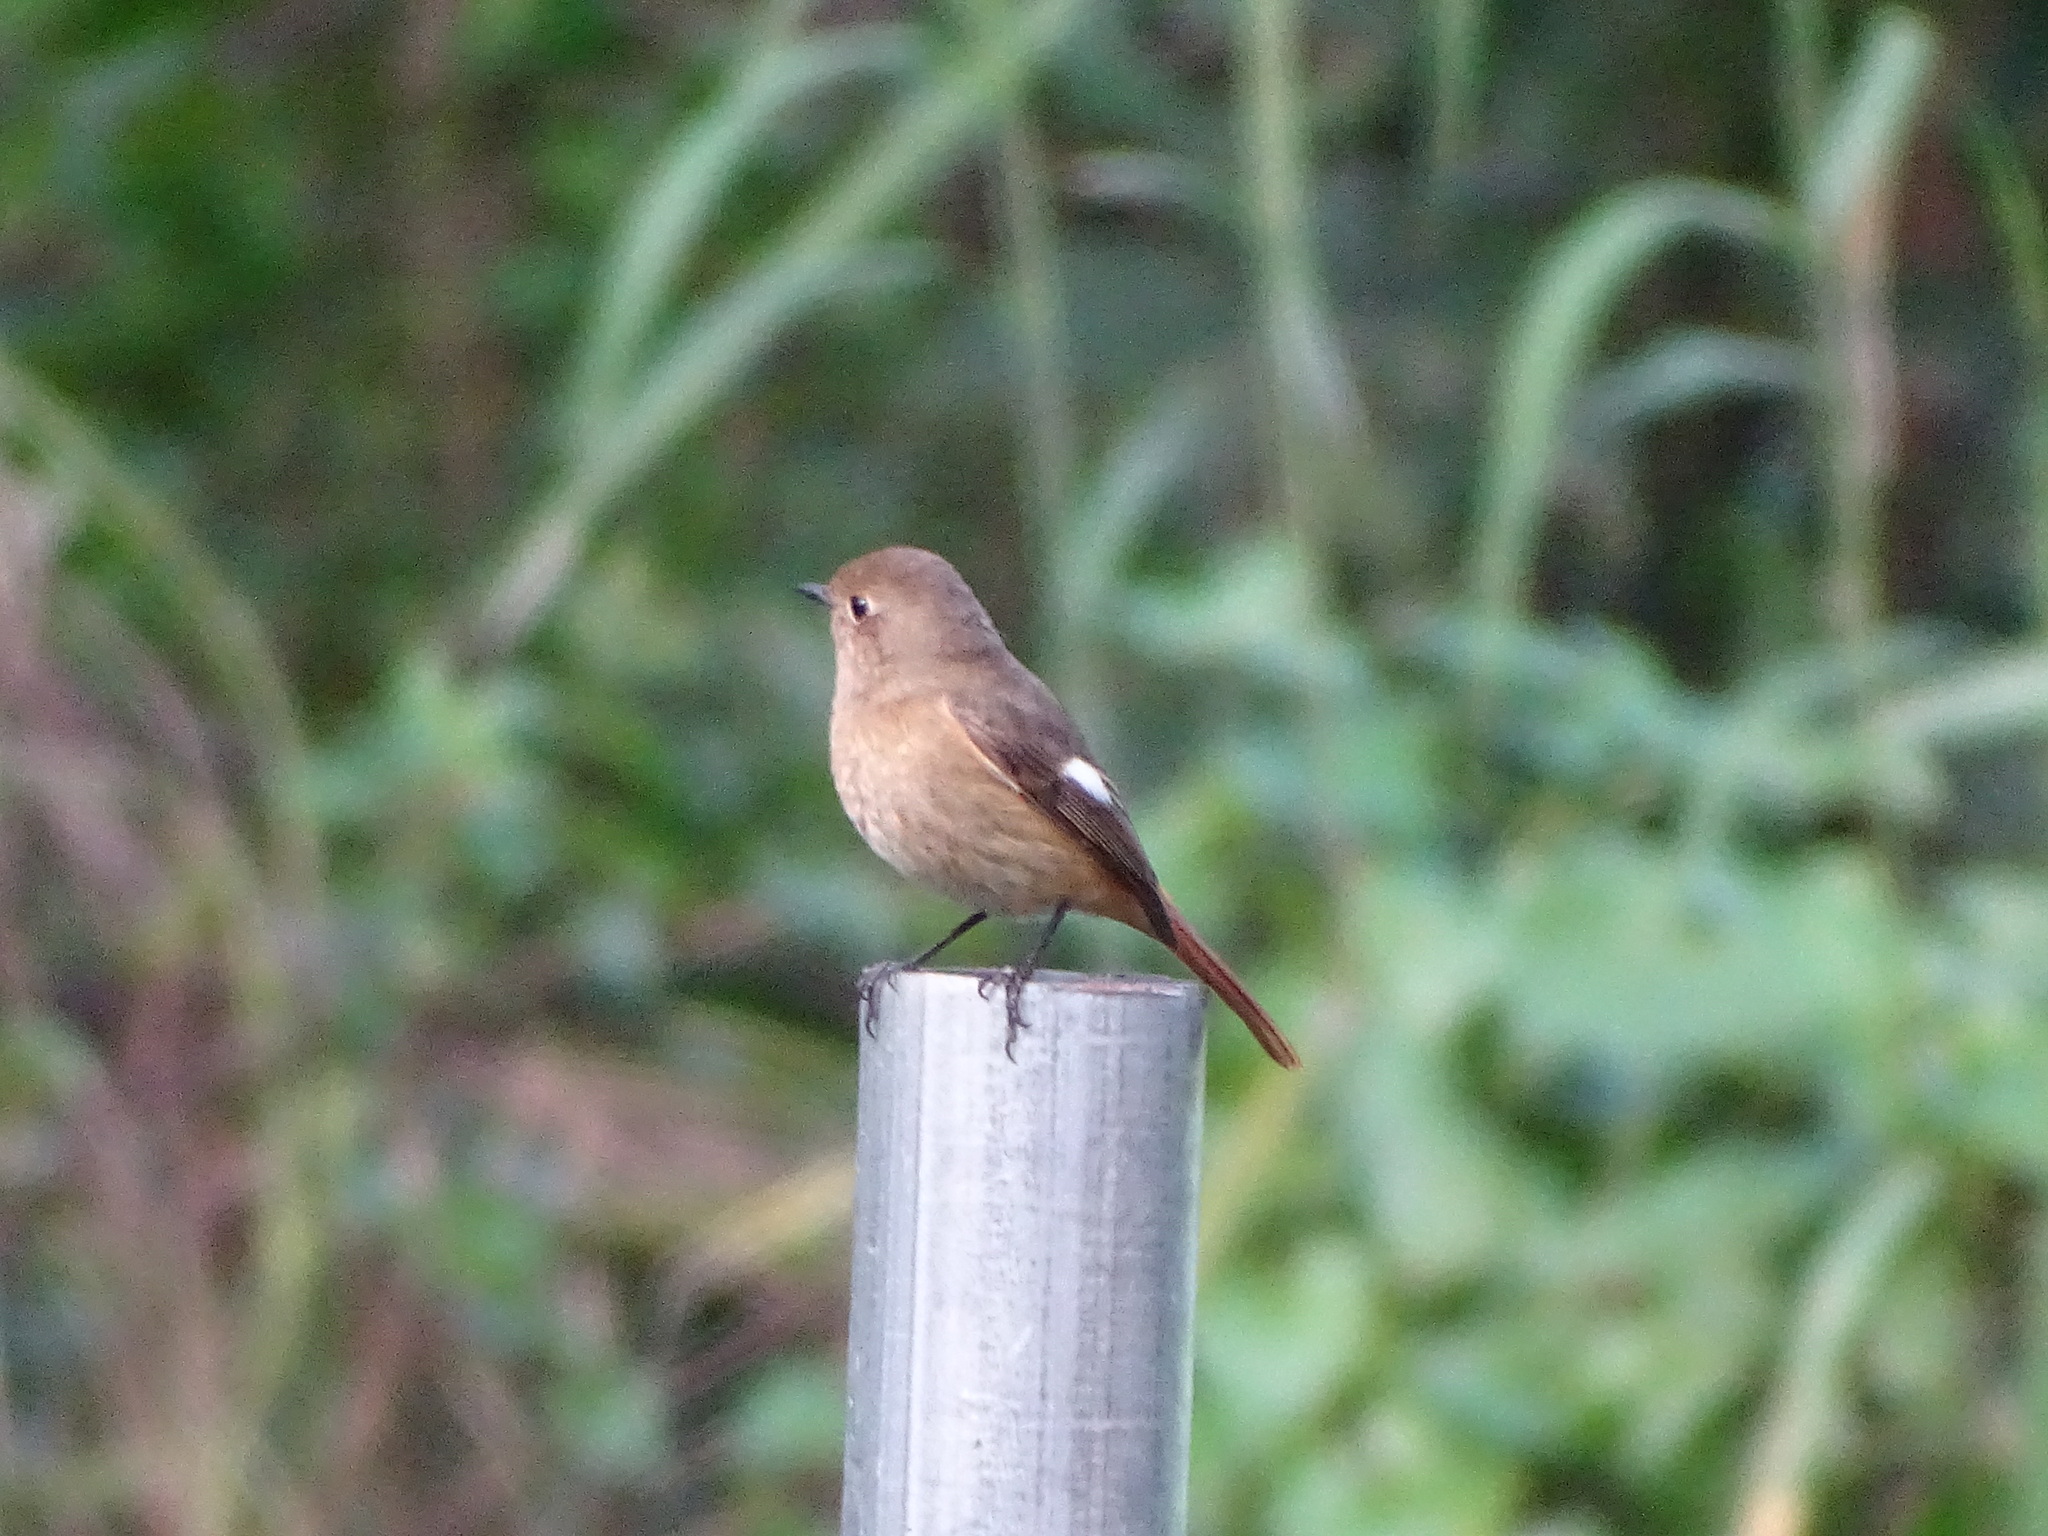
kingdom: Animalia
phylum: Chordata
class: Aves
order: Passeriformes
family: Muscicapidae
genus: Phoenicurus
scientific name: Phoenicurus auroreus
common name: Daurian redstart
